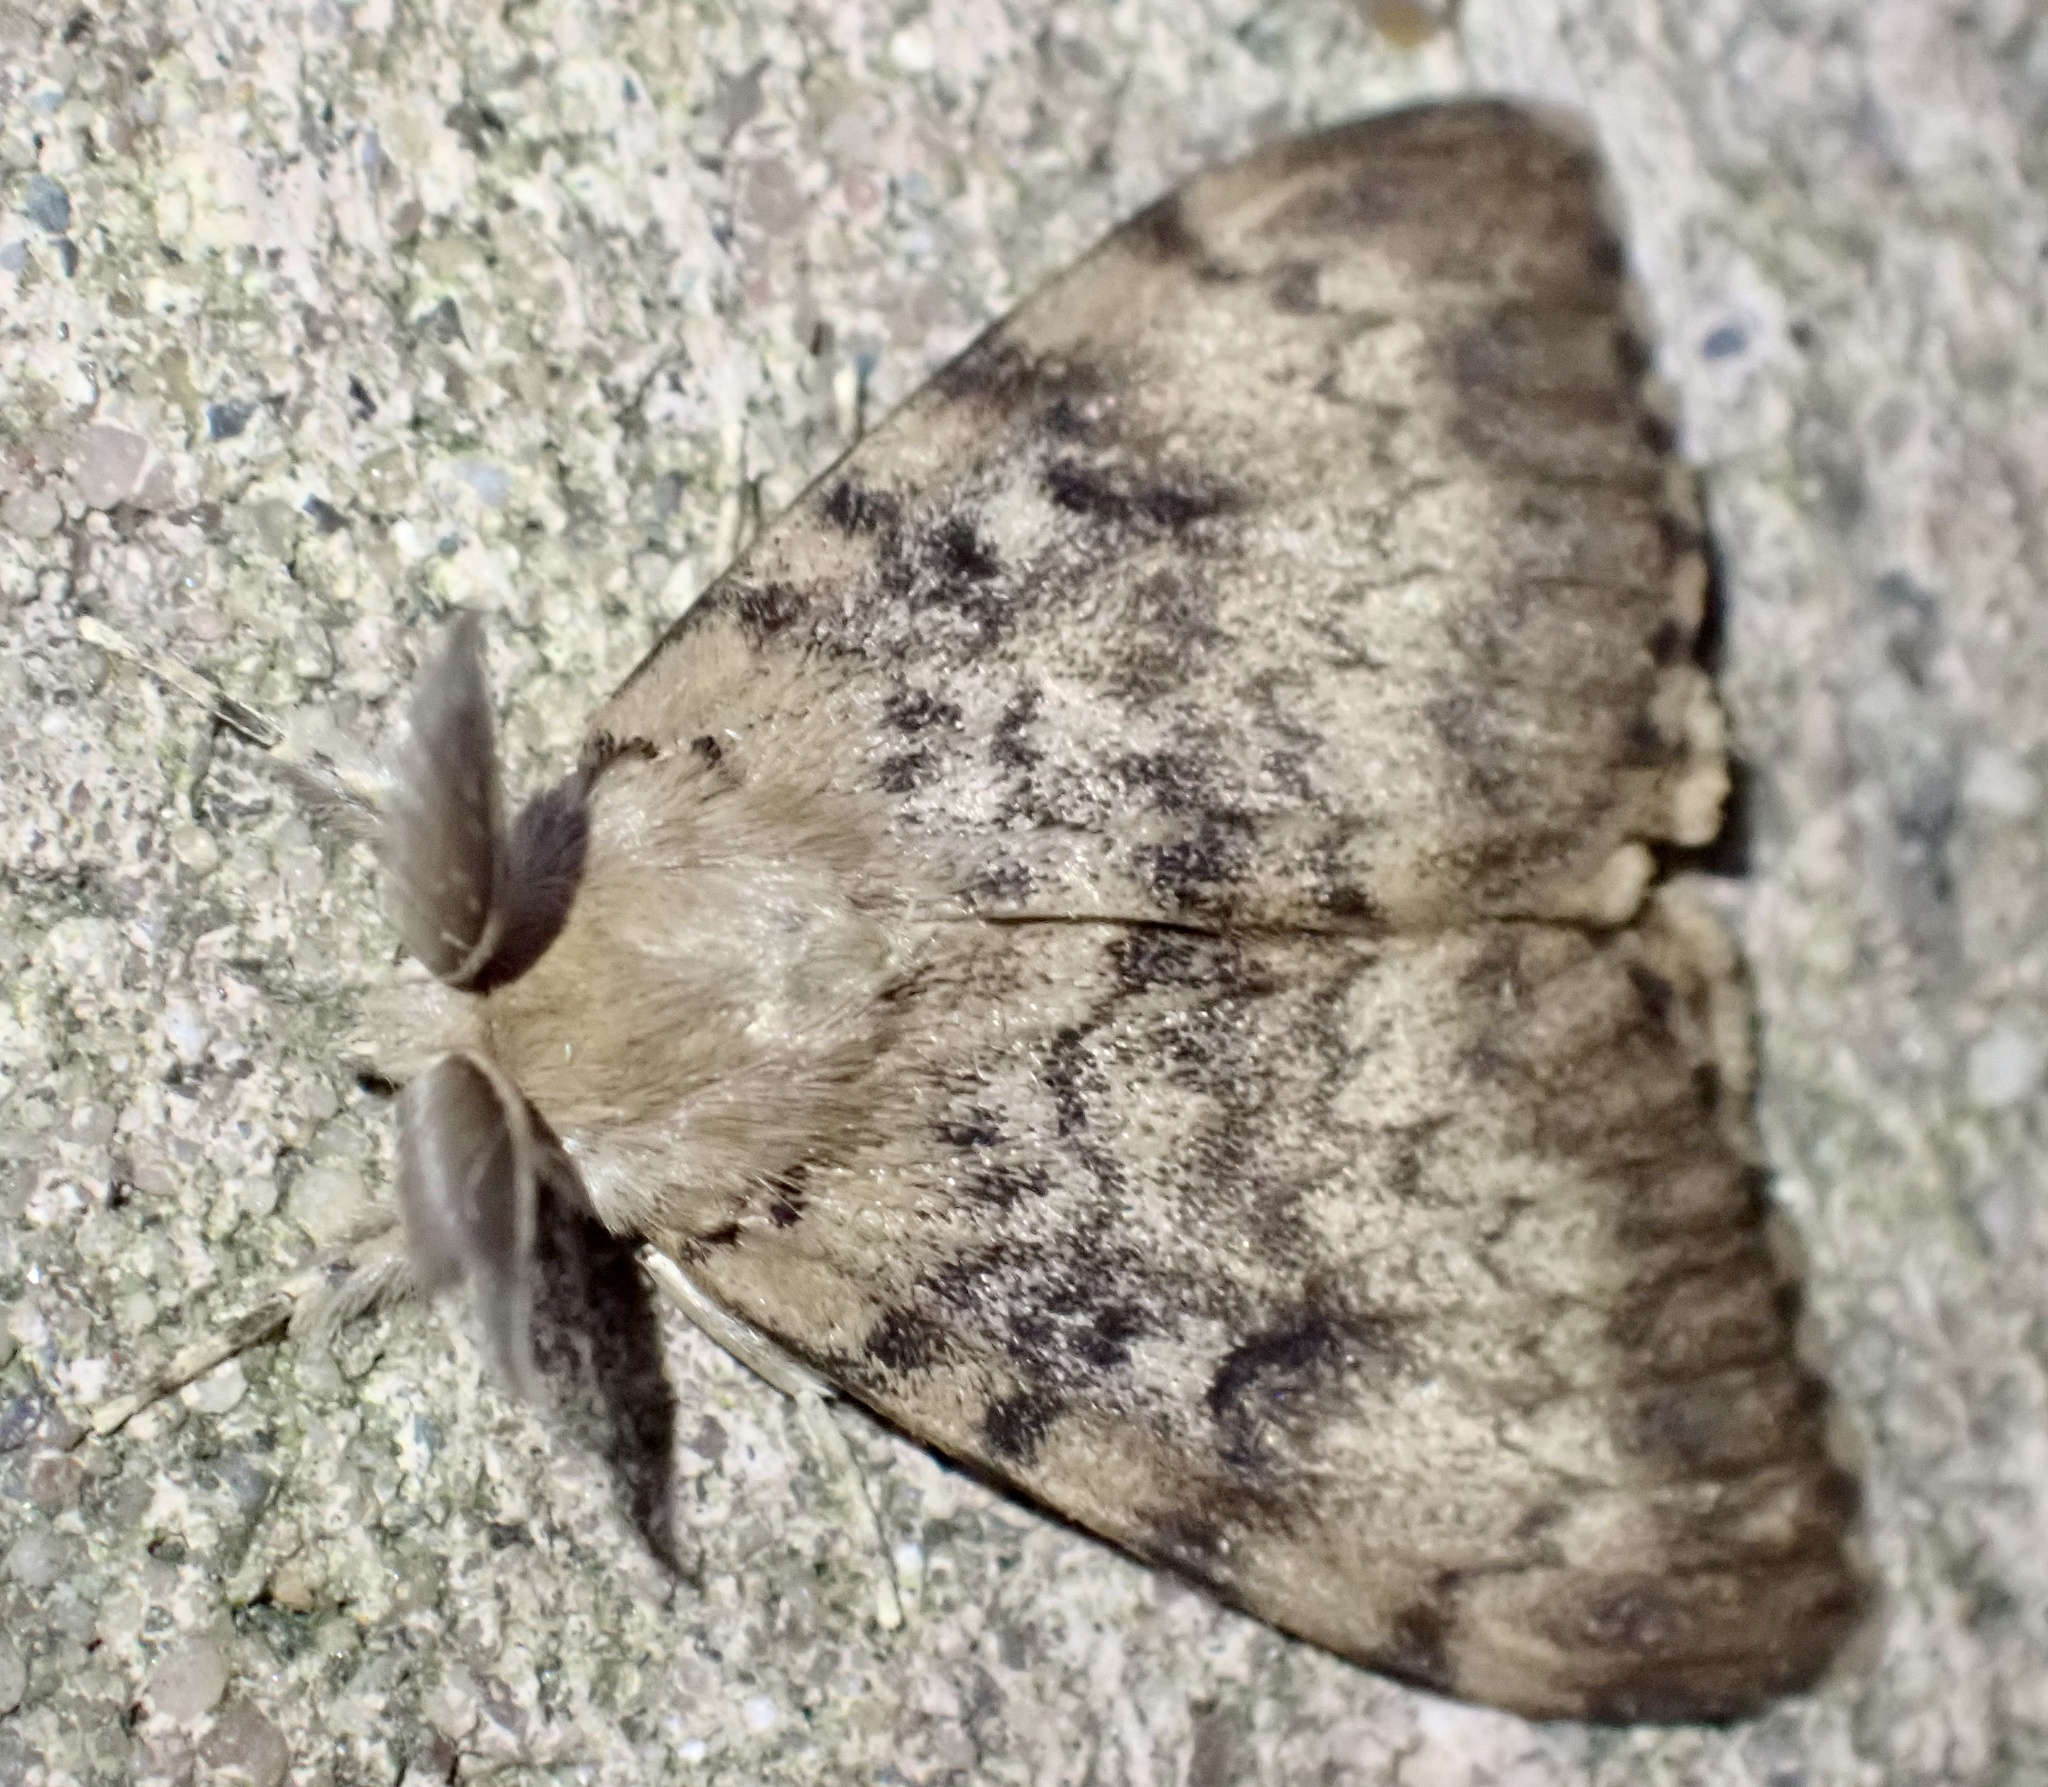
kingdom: Animalia
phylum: Arthropoda
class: Insecta
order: Lepidoptera
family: Erebidae
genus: Lymantria
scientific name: Lymantria dispar
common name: Gypsy moth
